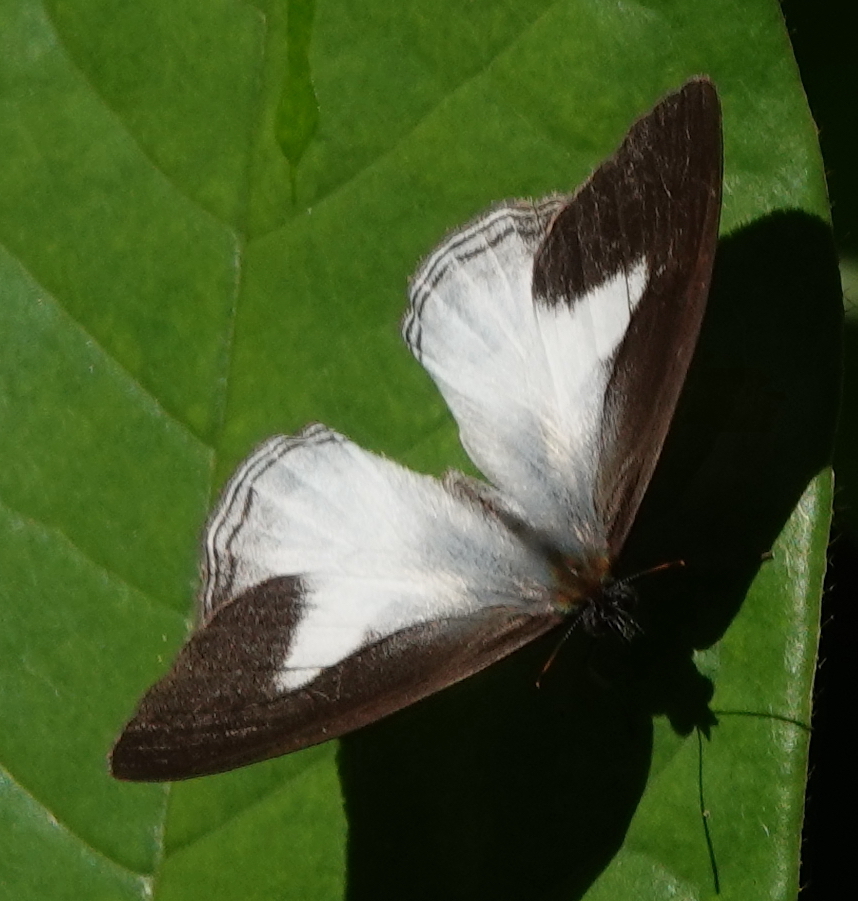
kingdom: Animalia
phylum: Arthropoda
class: Insecta
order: Lepidoptera
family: Nymphalidae
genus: Pareuptychia
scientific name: Pareuptychia metaleuca
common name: White-banded satyr
